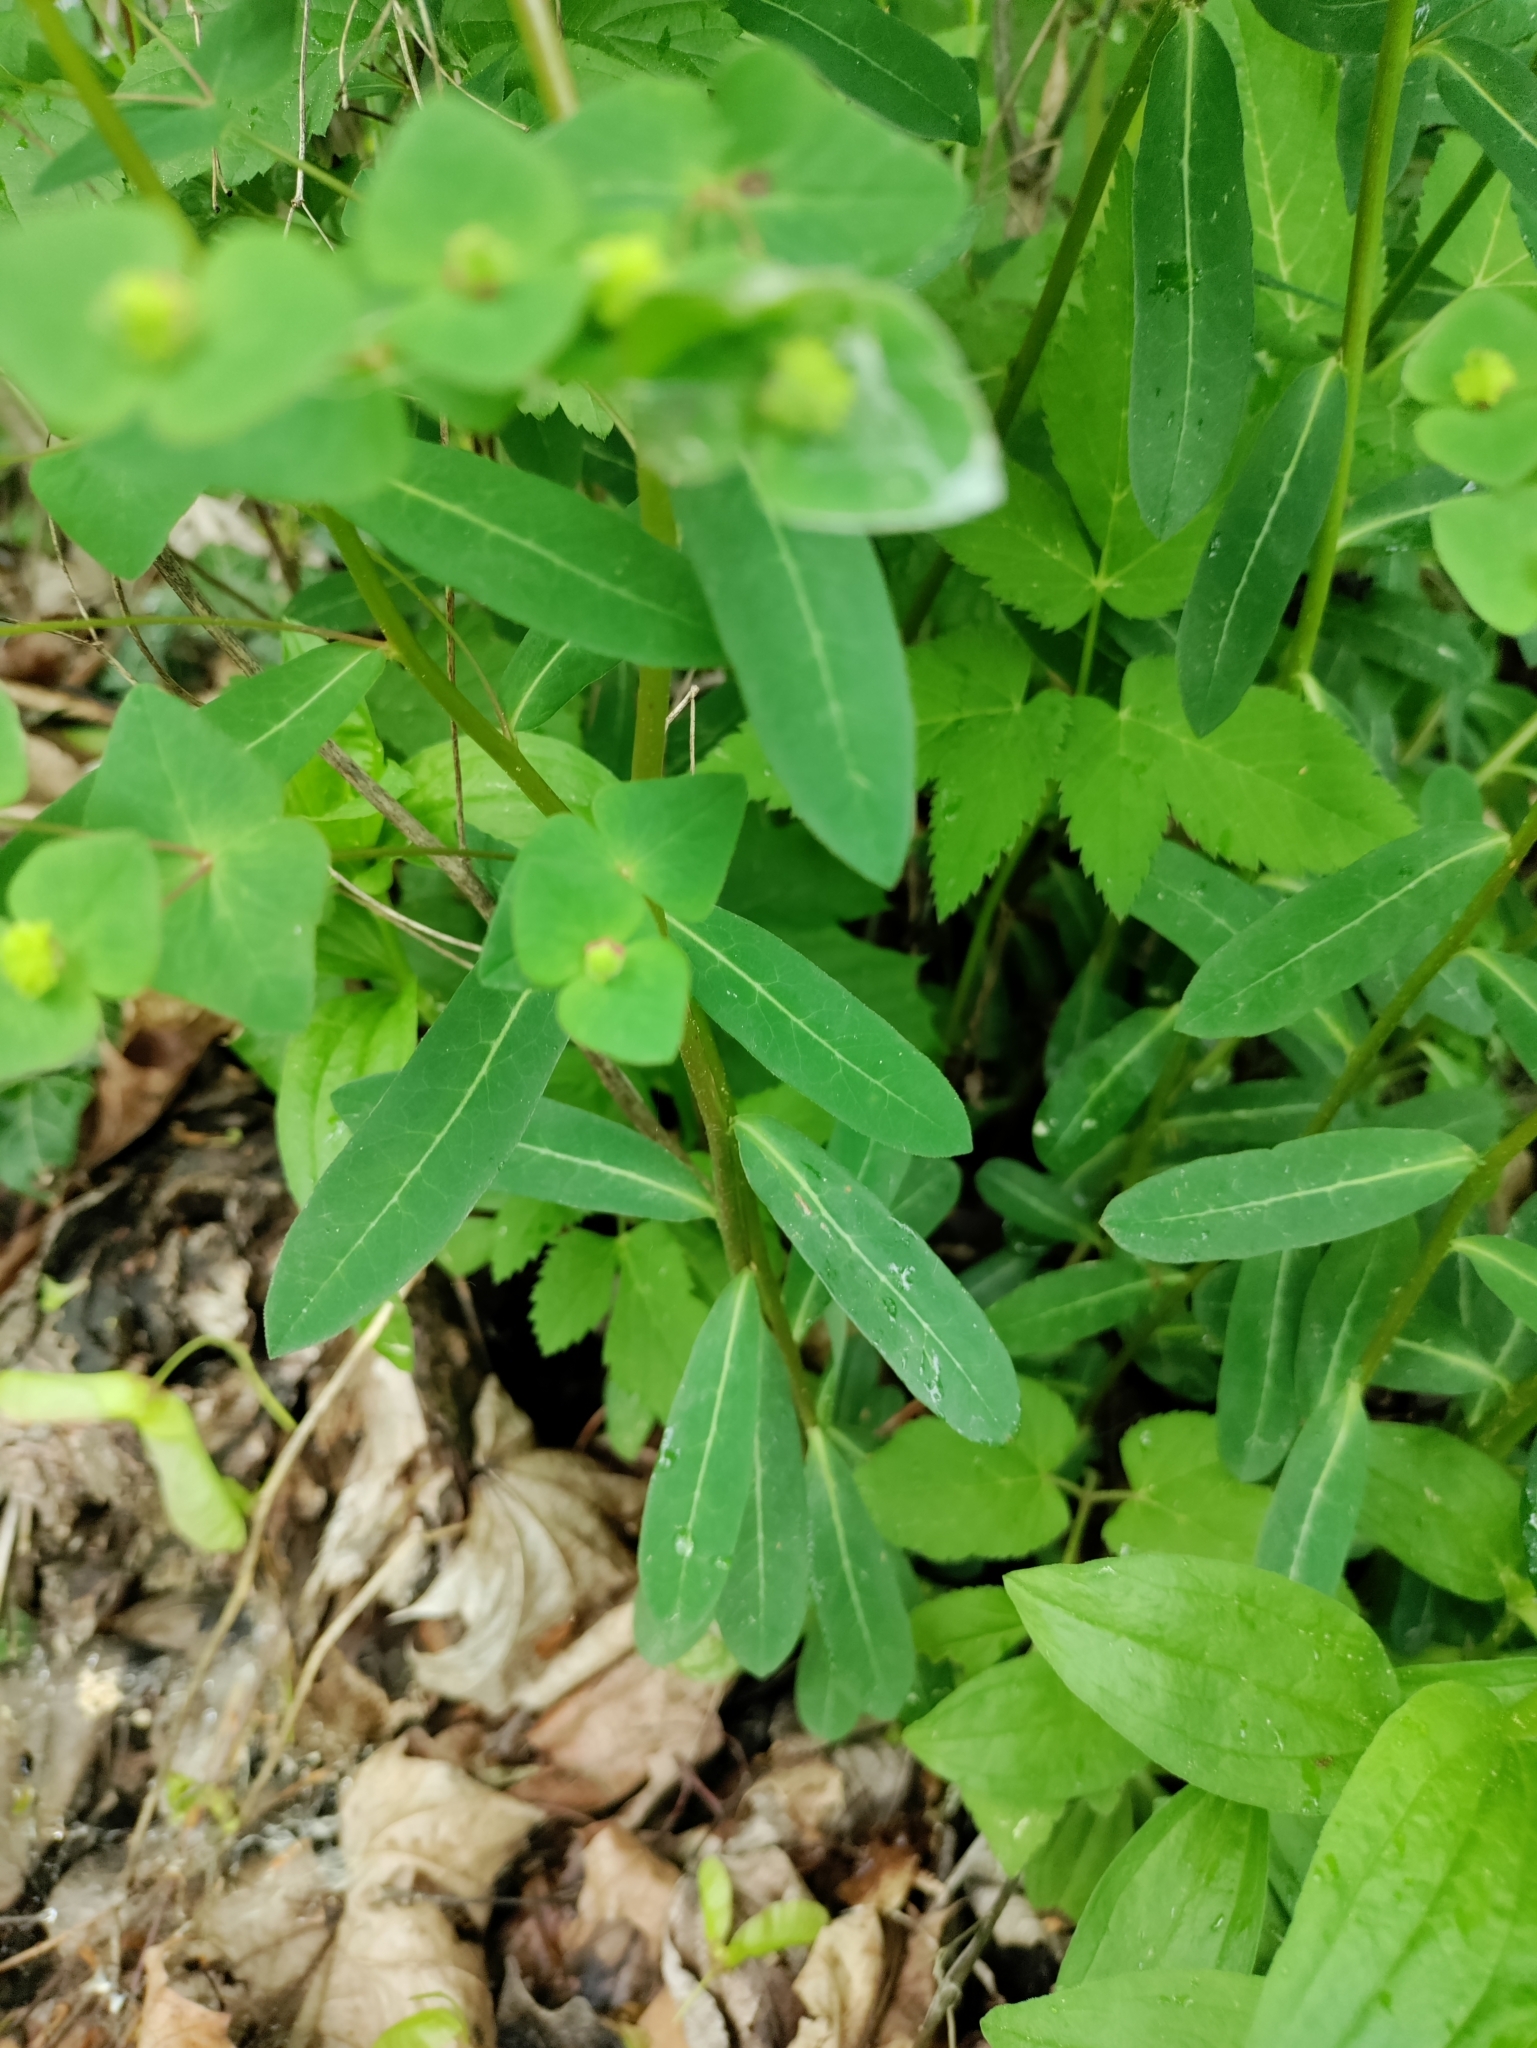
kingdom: Plantae
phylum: Tracheophyta
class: Magnoliopsida
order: Malpighiales
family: Euphorbiaceae
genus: Euphorbia
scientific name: Euphorbia dulcis
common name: Sweet spurge
